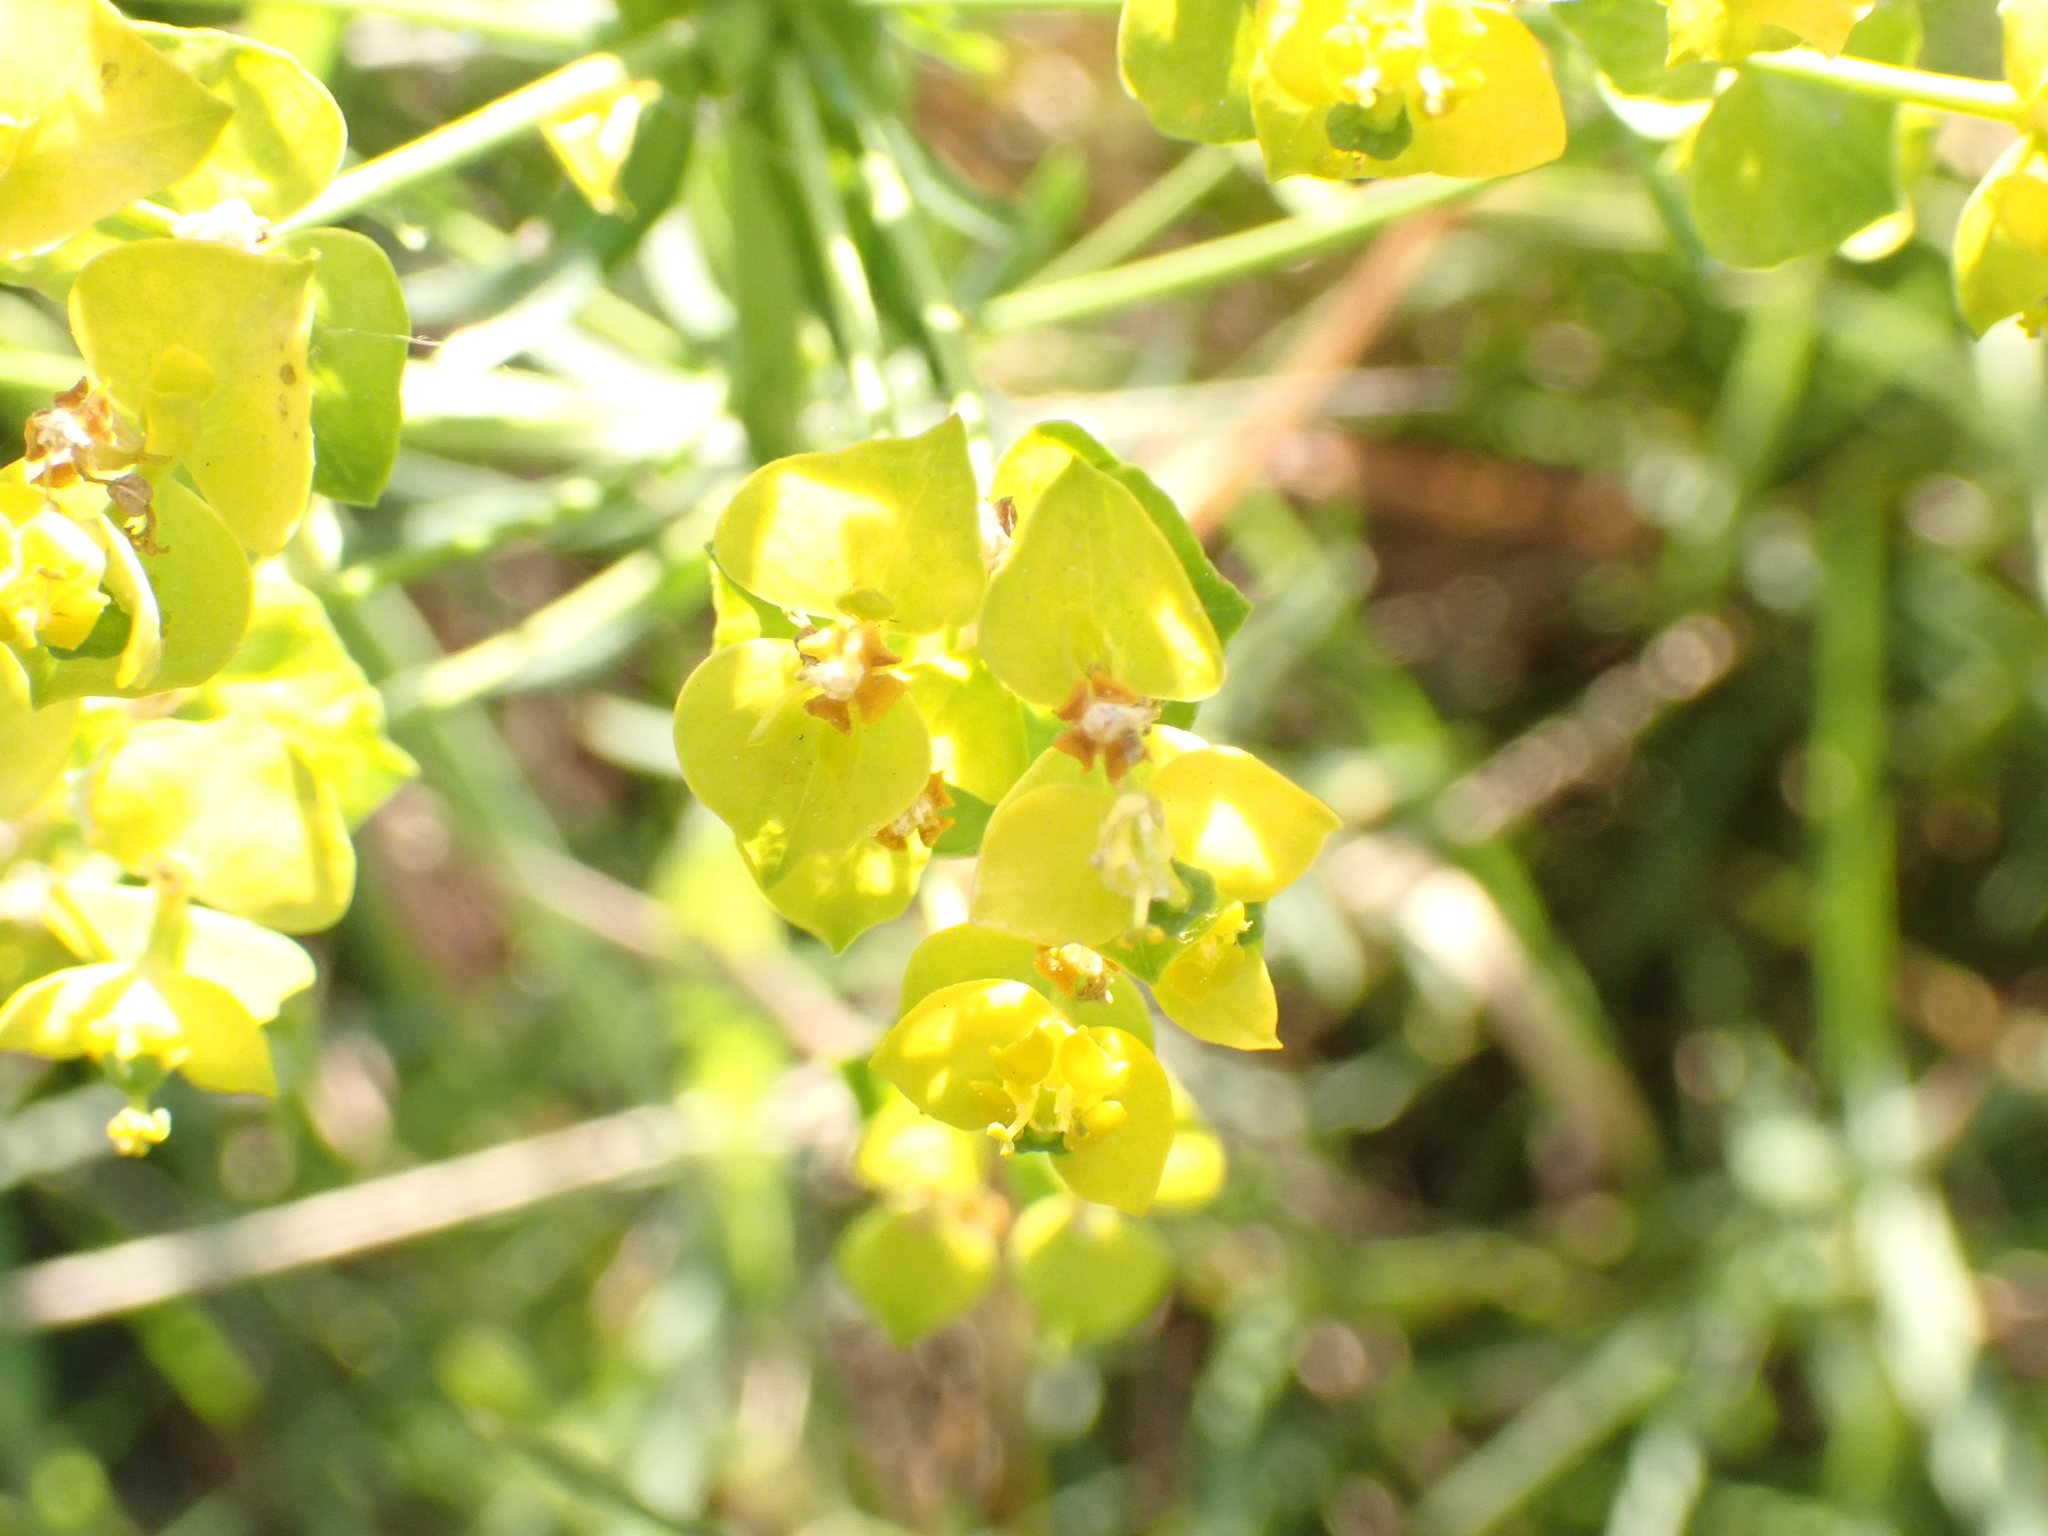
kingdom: Plantae
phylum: Tracheophyta
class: Magnoliopsida
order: Malpighiales
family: Euphorbiaceae
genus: Euphorbia
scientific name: Euphorbia cyparissias
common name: Cypress spurge
